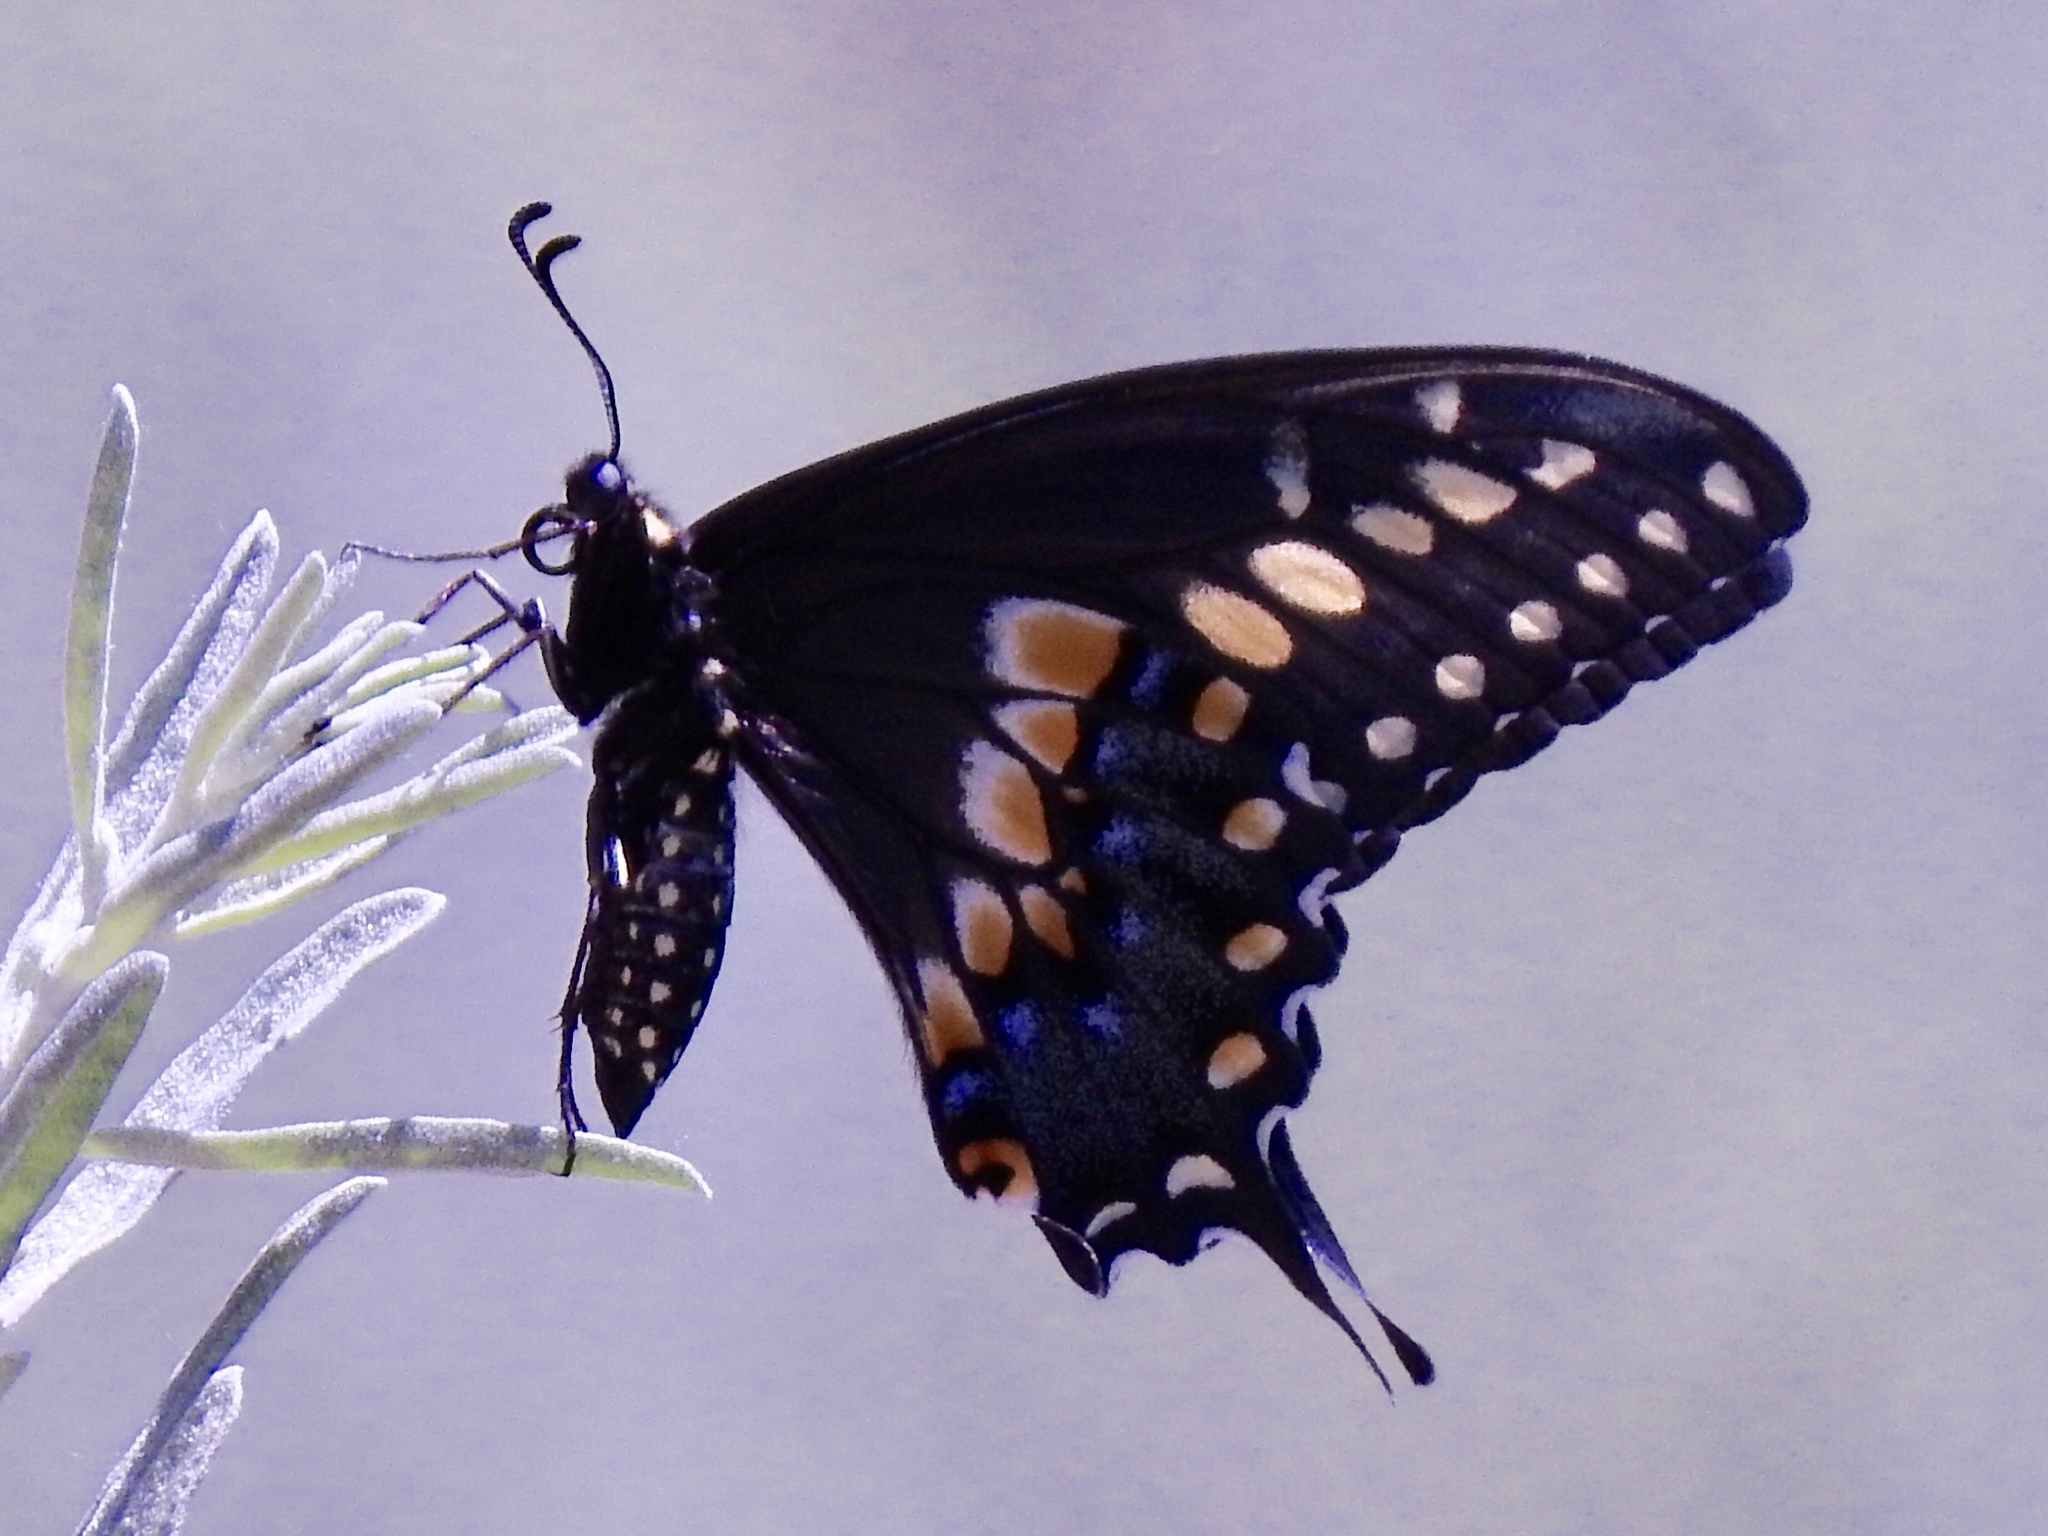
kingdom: Animalia
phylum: Arthropoda
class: Insecta
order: Lepidoptera
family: Papilionidae
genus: Papilio
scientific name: Papilio polyxenes
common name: Black swallowtail
